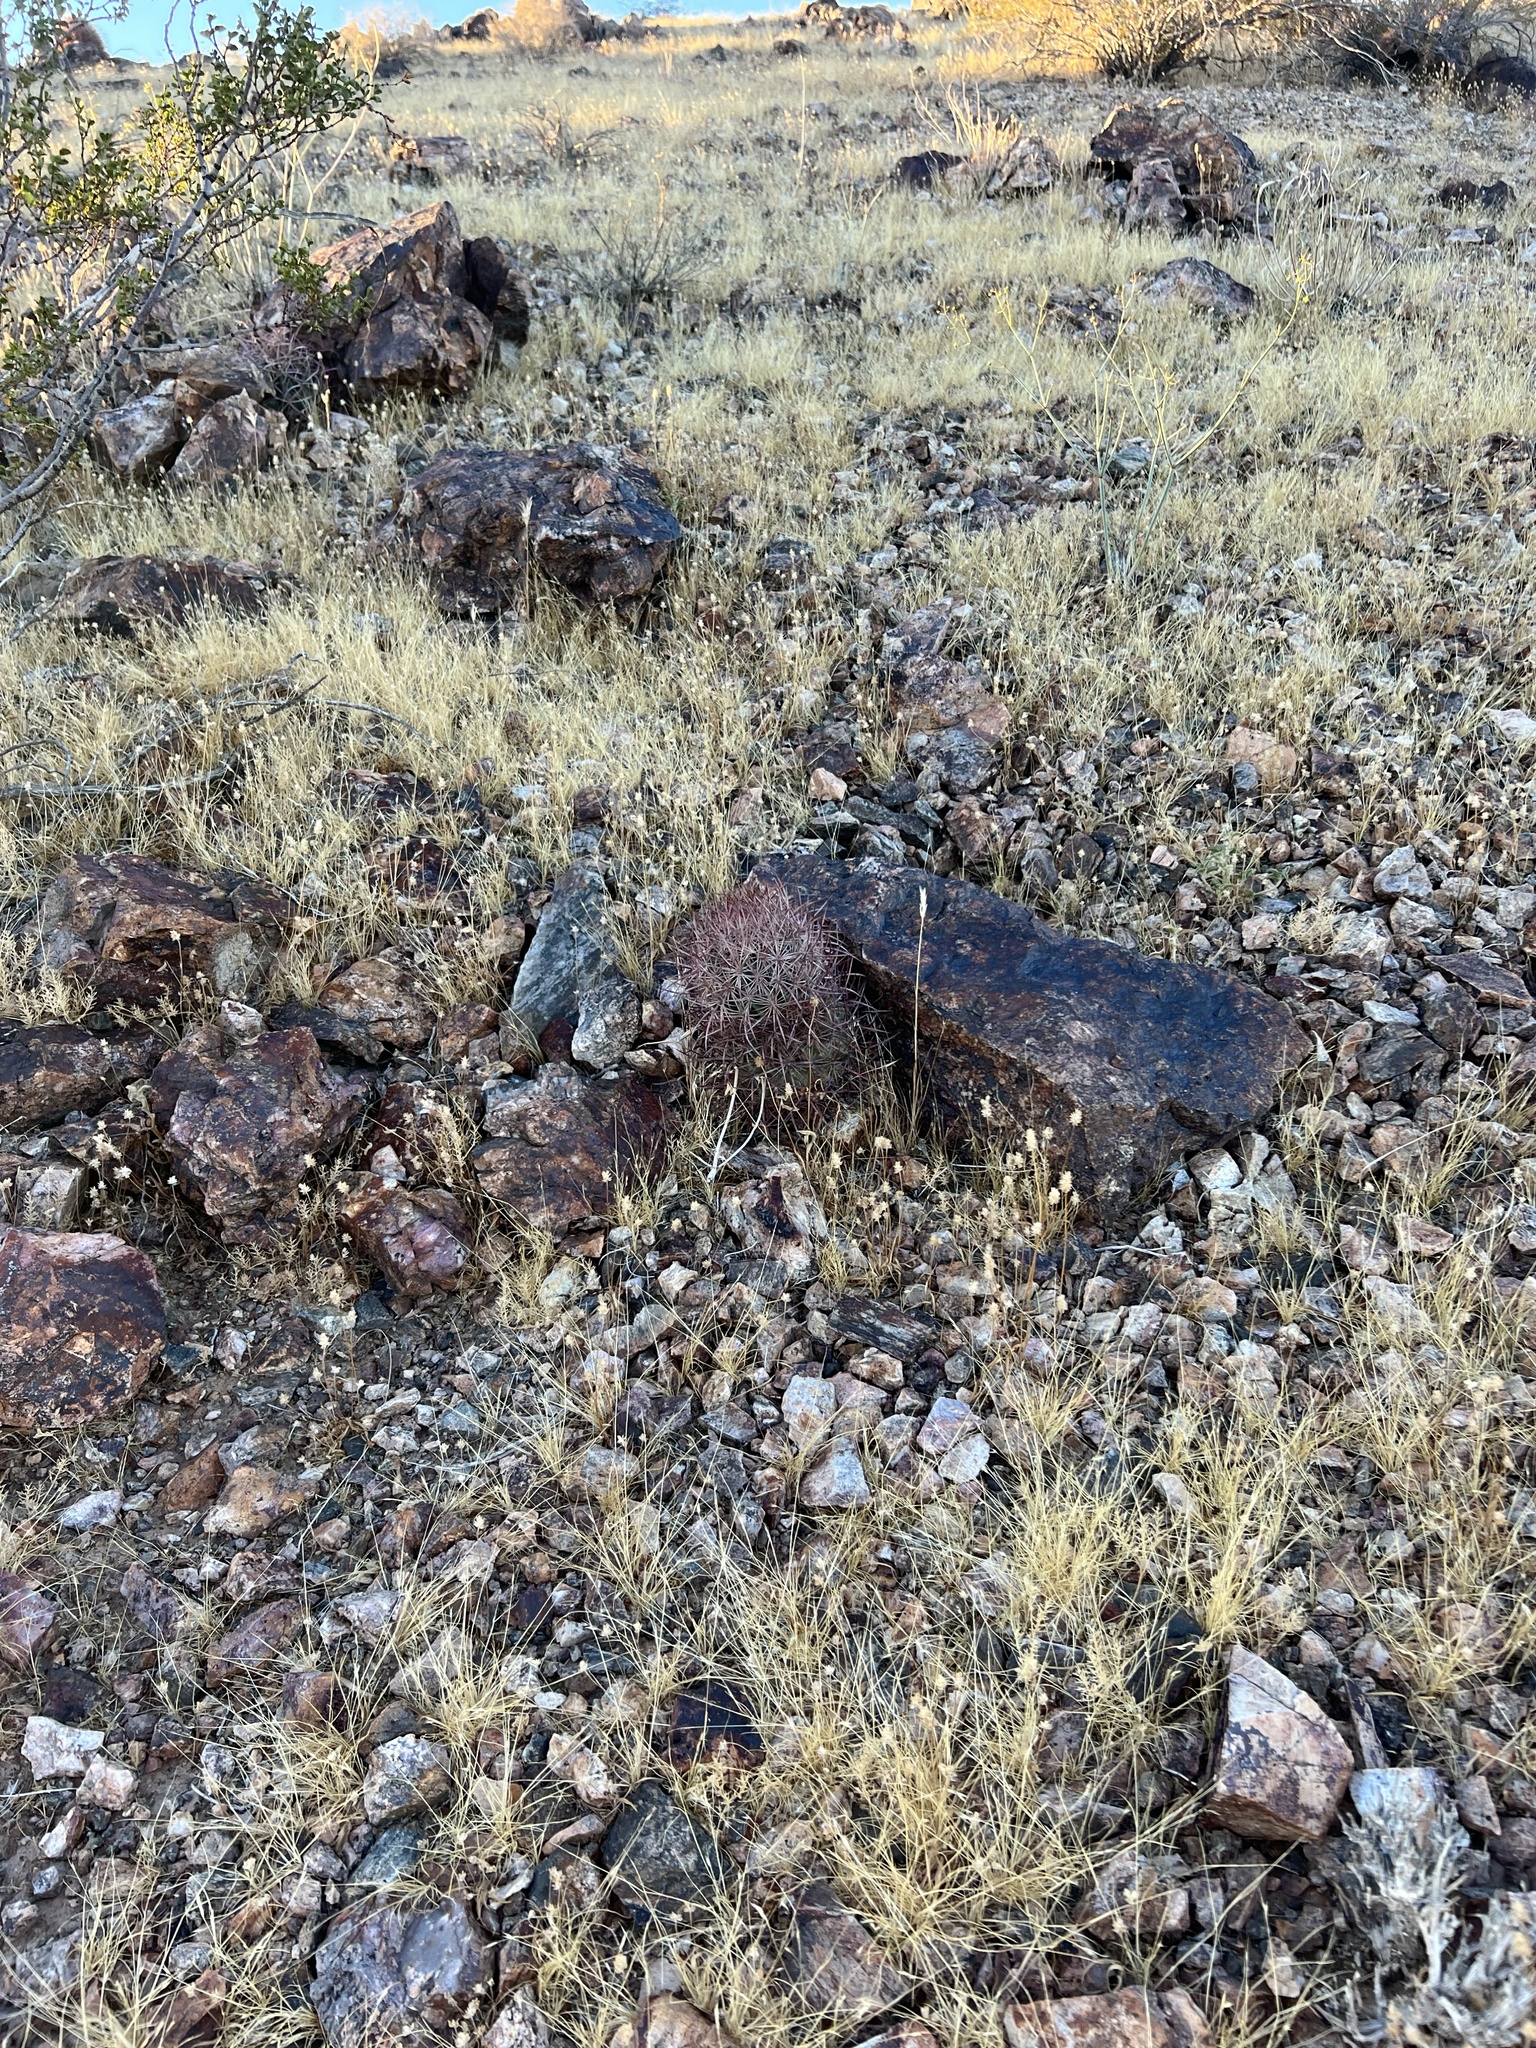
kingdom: Plantae
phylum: Tracheophyta
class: Magnoliopsida
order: Caryophyllales
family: Cactaceae
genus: Sclerocactus
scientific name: Sclerocactus johnsonii
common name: Eight-spine fishhook cactus
